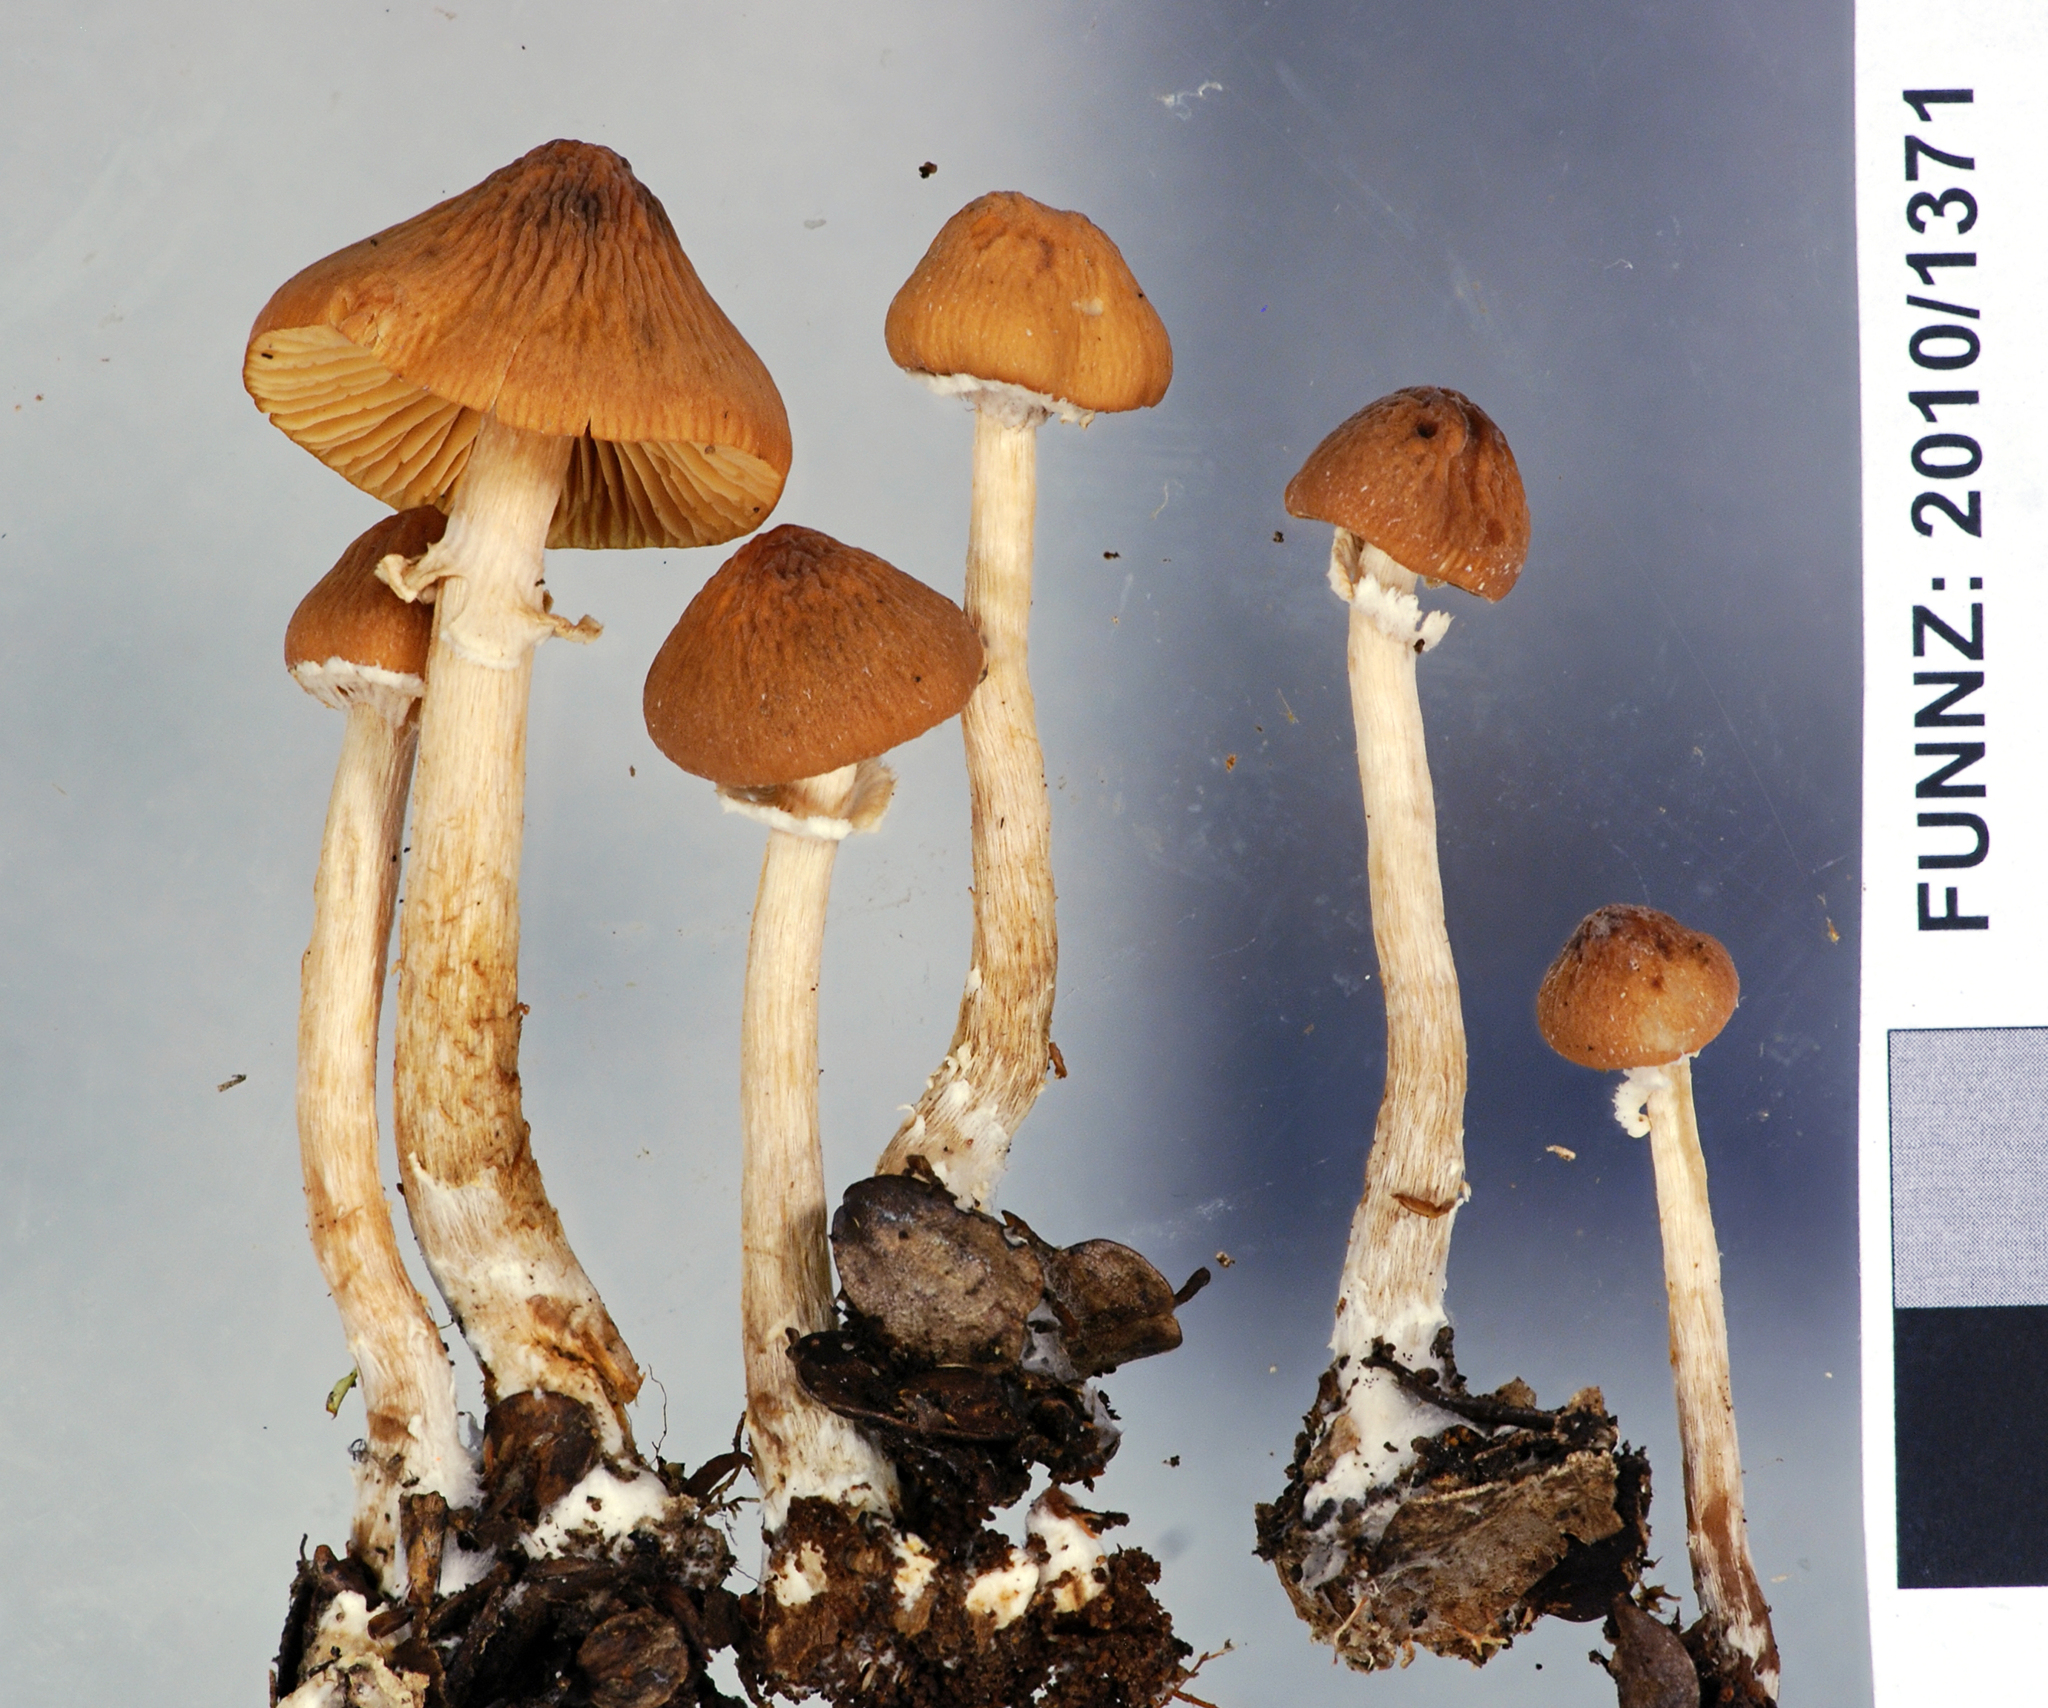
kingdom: Fungi
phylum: Basidiomycota
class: Agaricomycetes
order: Agaricales
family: Bolbitiaceae
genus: Descolea
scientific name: Descolea phlebophora
